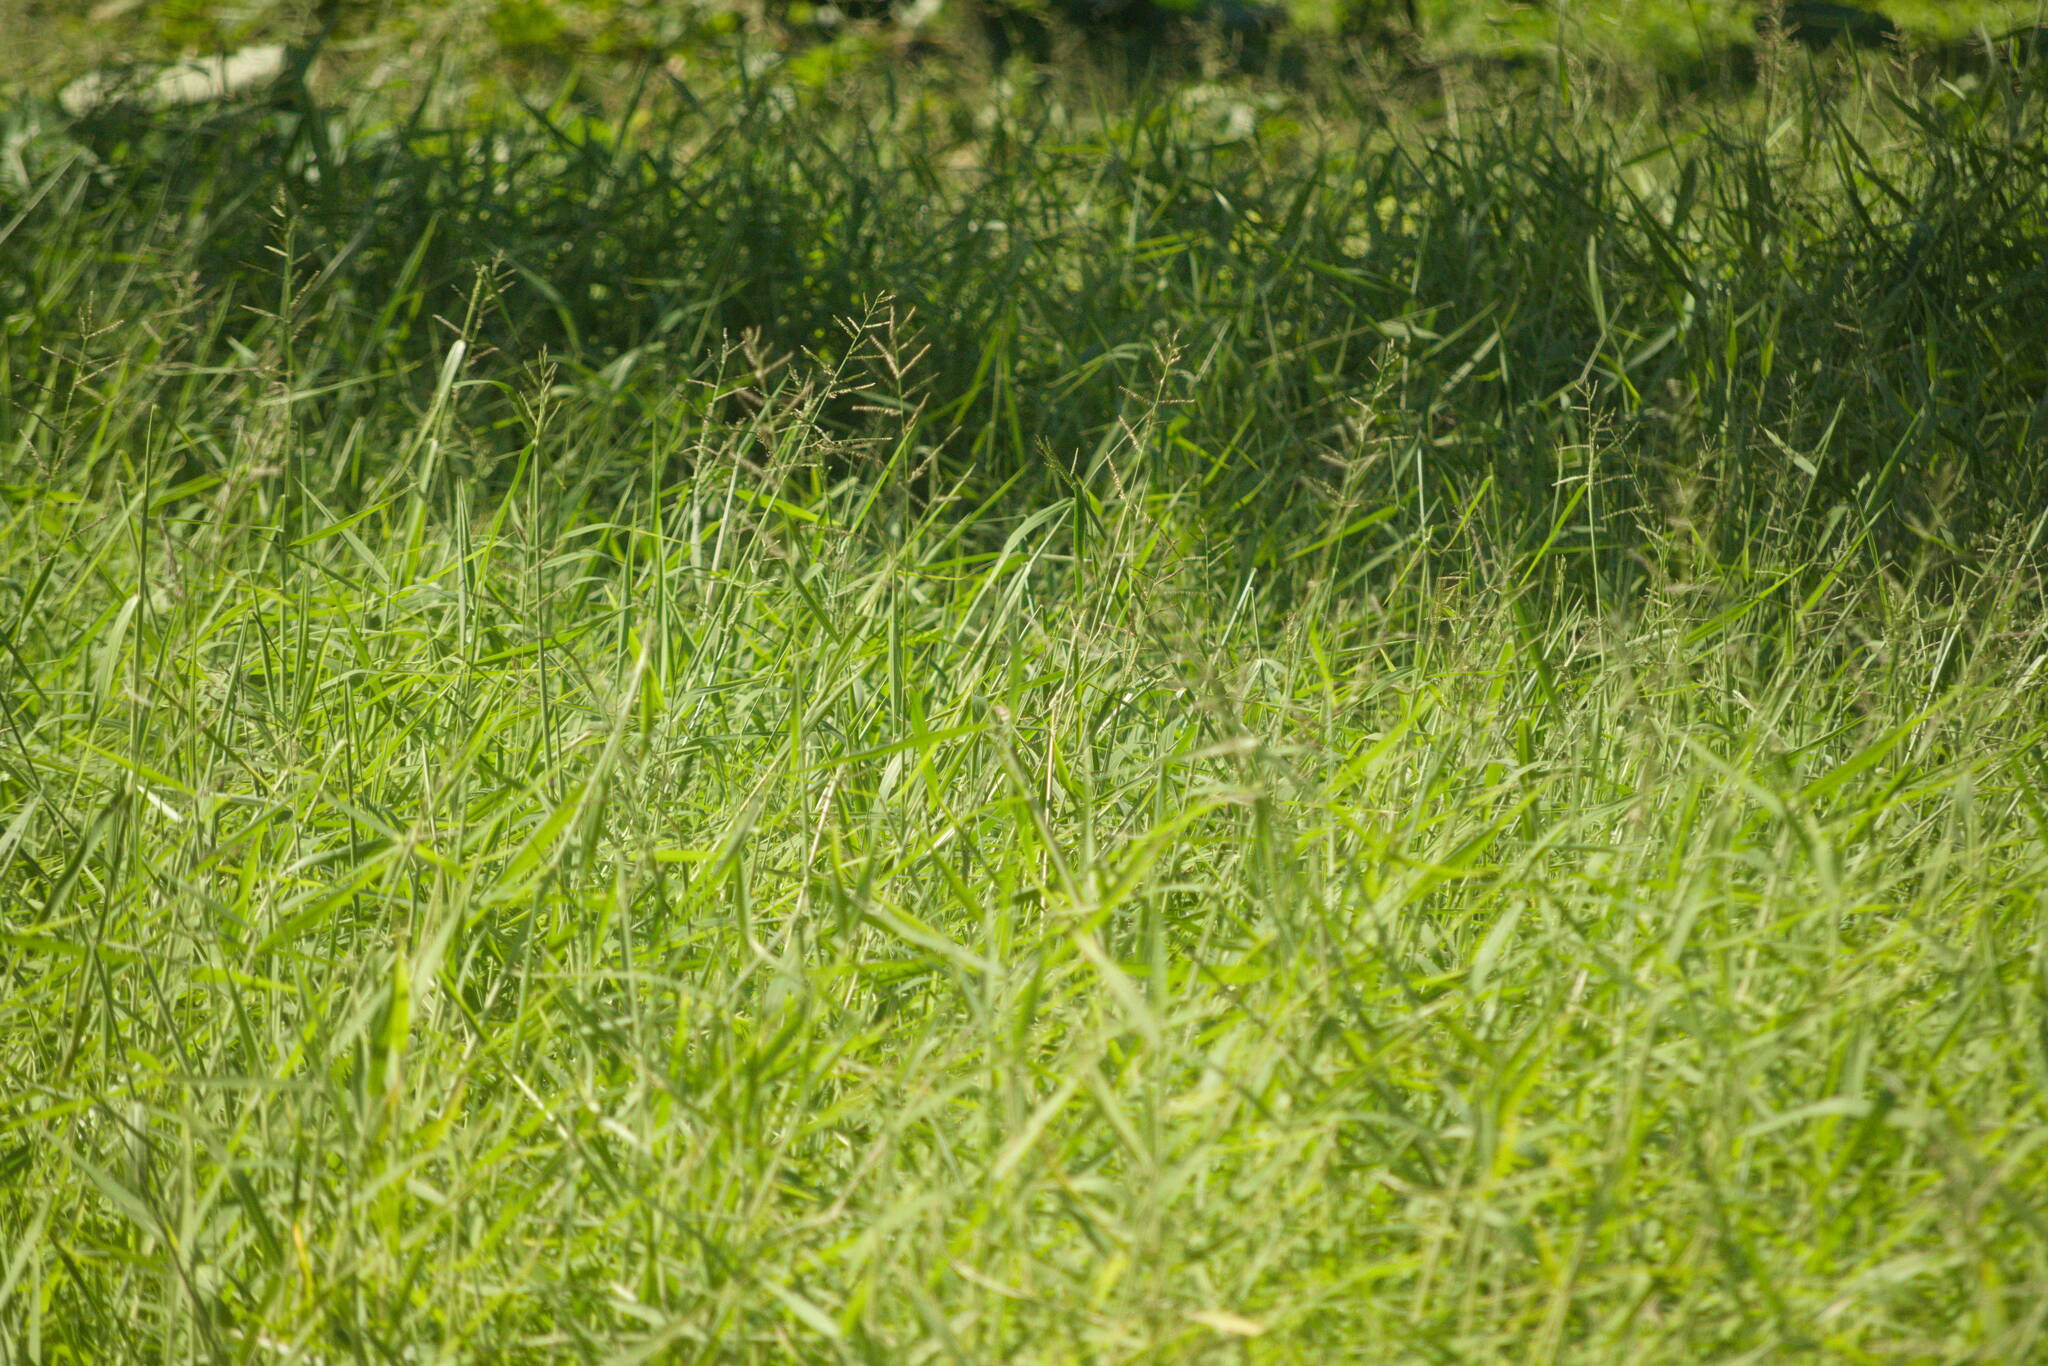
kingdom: Plantae
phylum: Tracheophyta
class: Liliopsida
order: Poales
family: Poaceae
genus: Urochloa
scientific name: Urochloa mutica
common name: Para grass
